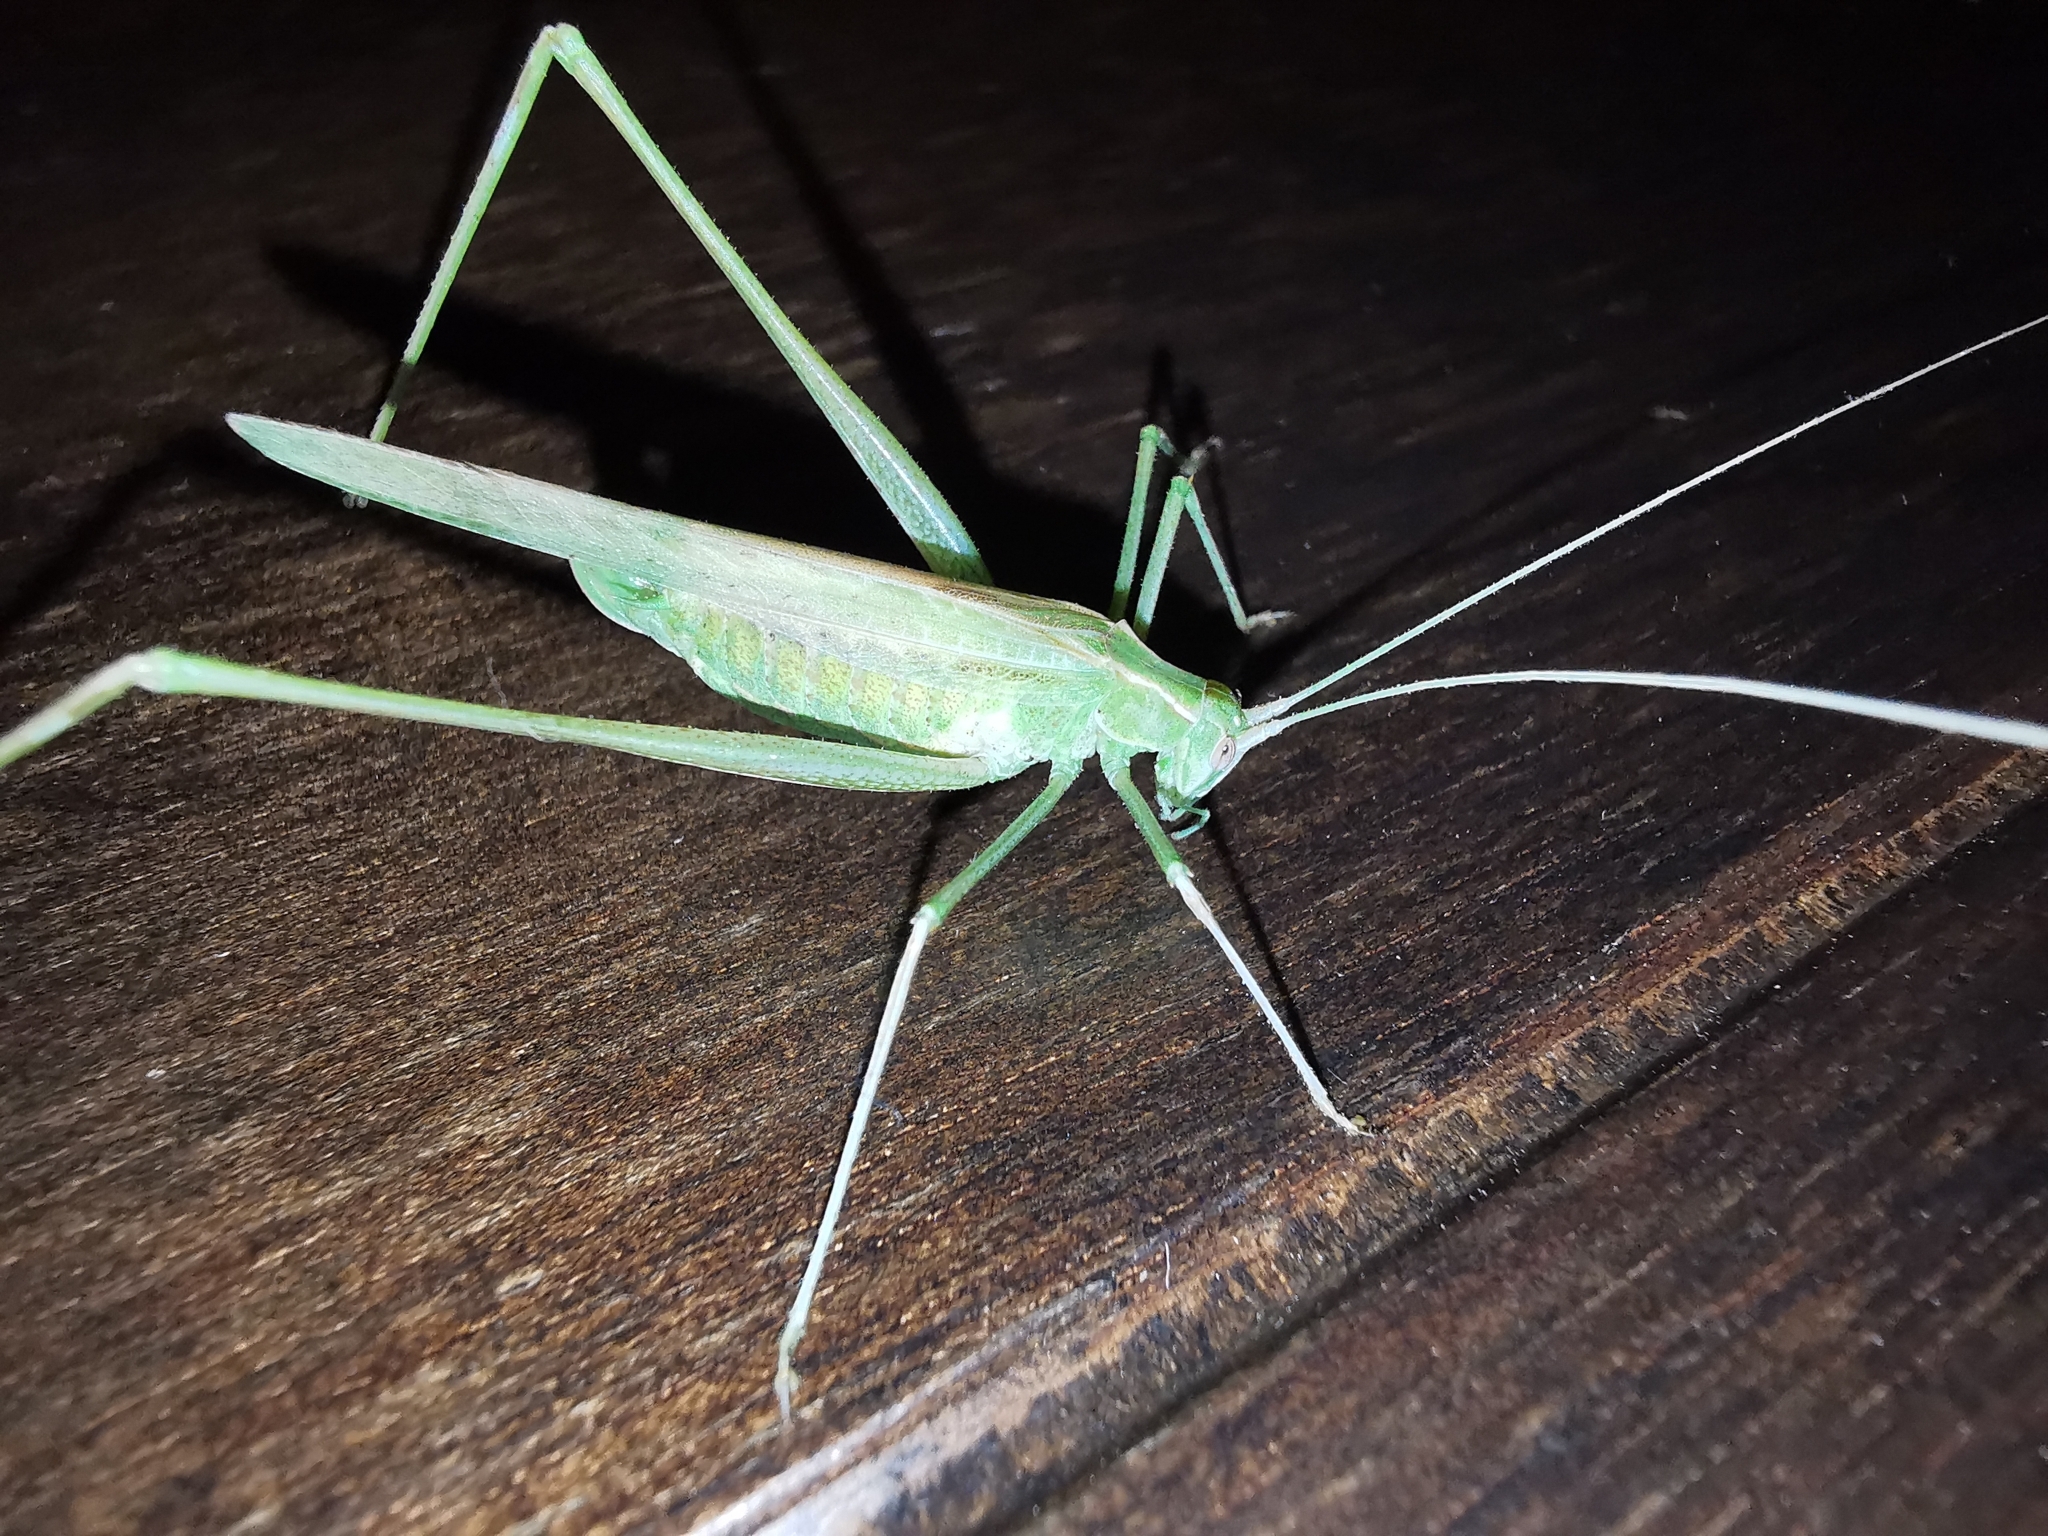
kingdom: Animalia
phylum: Arthropoda
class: Insecta
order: Orthoptera
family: Tettigoniidae
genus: Tylopsis
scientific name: Tylopsis lilifolia
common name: Lily bush-cricket
